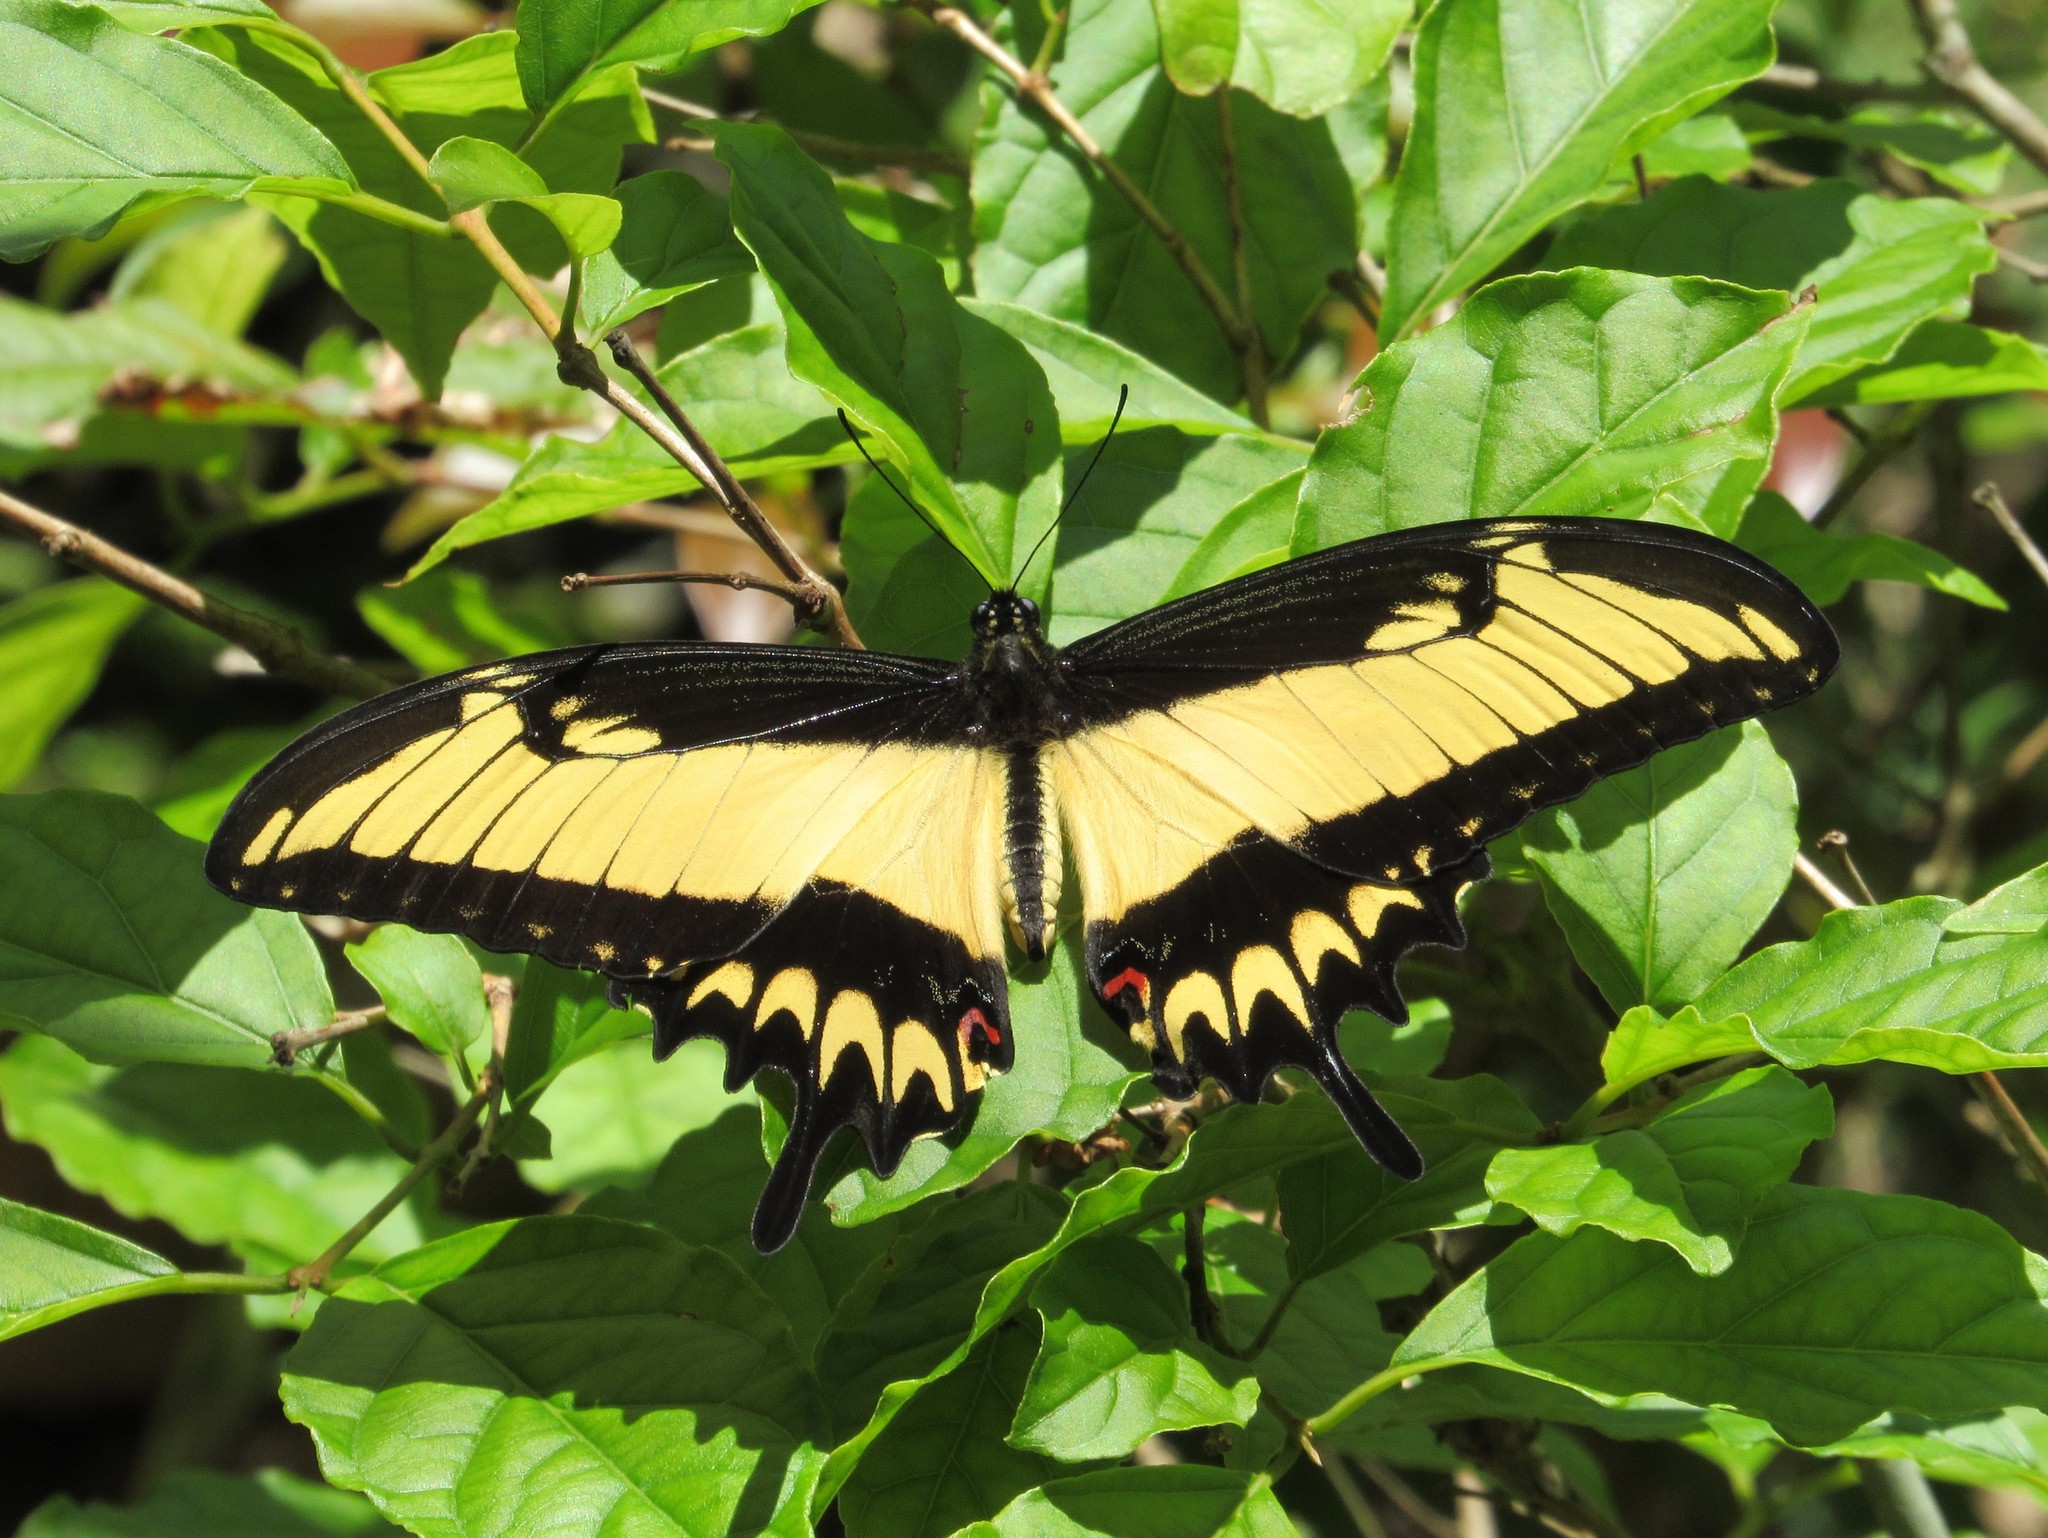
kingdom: Animalia
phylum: Arthropoda
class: Insecta
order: Lepidoptera
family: Papilionidae
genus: Papilio
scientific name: Papilio astyalus
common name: Astyalus swallowtail
